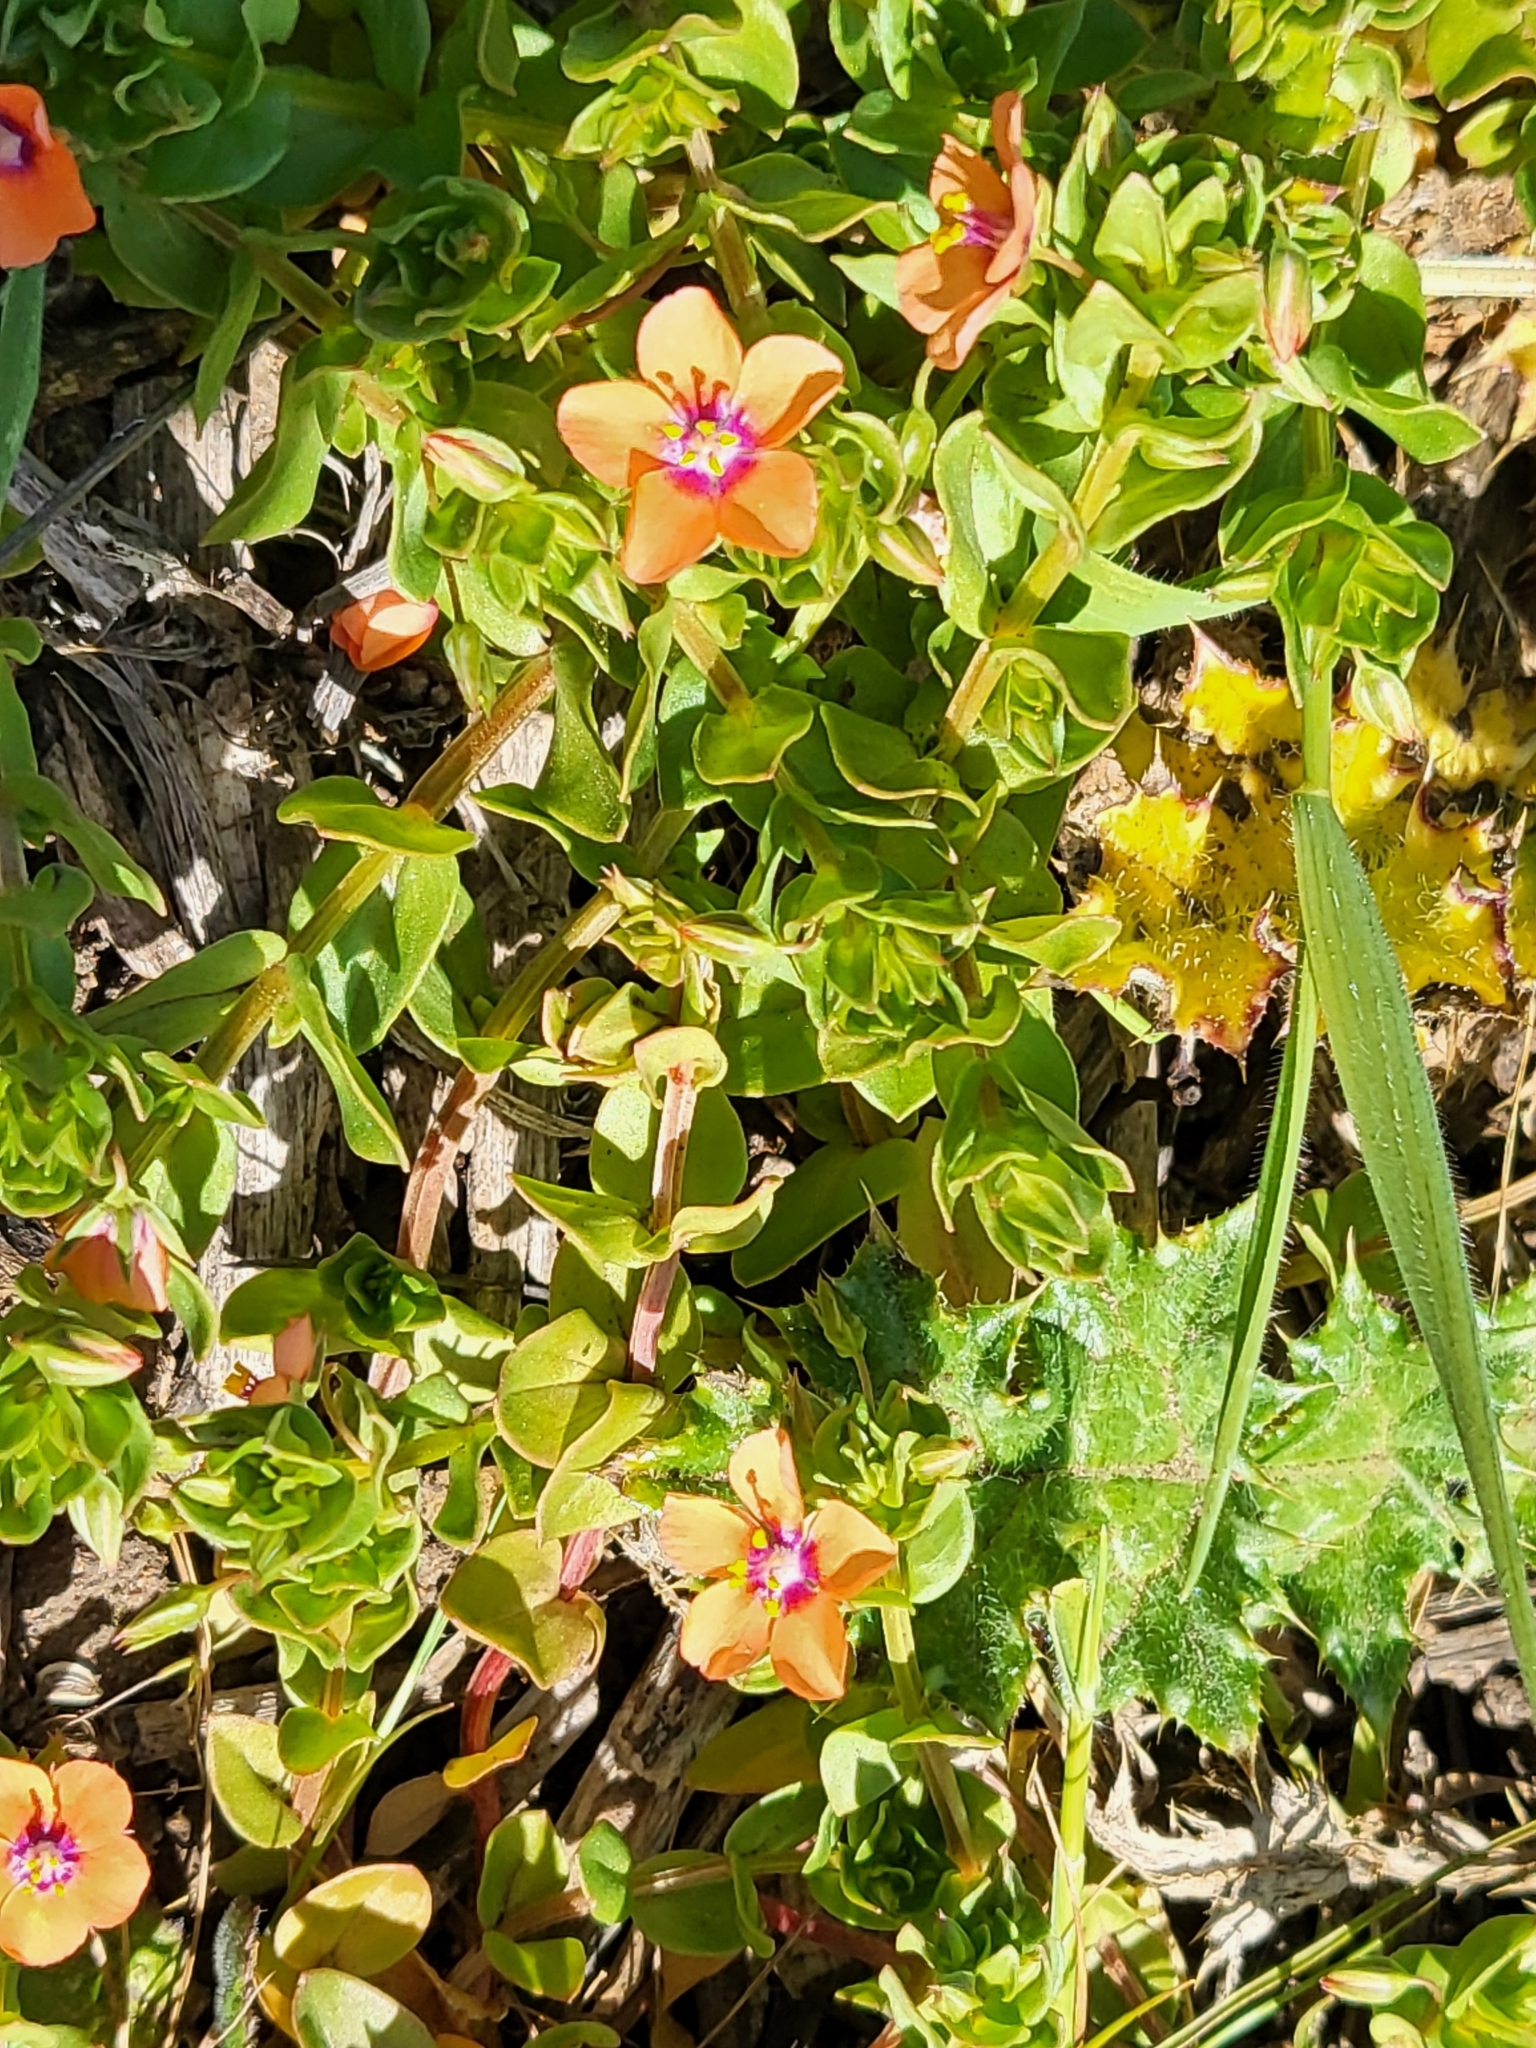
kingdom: Plantae
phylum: Tracheophyta
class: Magnoliopsida
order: Ericales
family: Primulaceae
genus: Lysimachia
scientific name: Lysimachia arvensis
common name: Scarlet pimpernel
